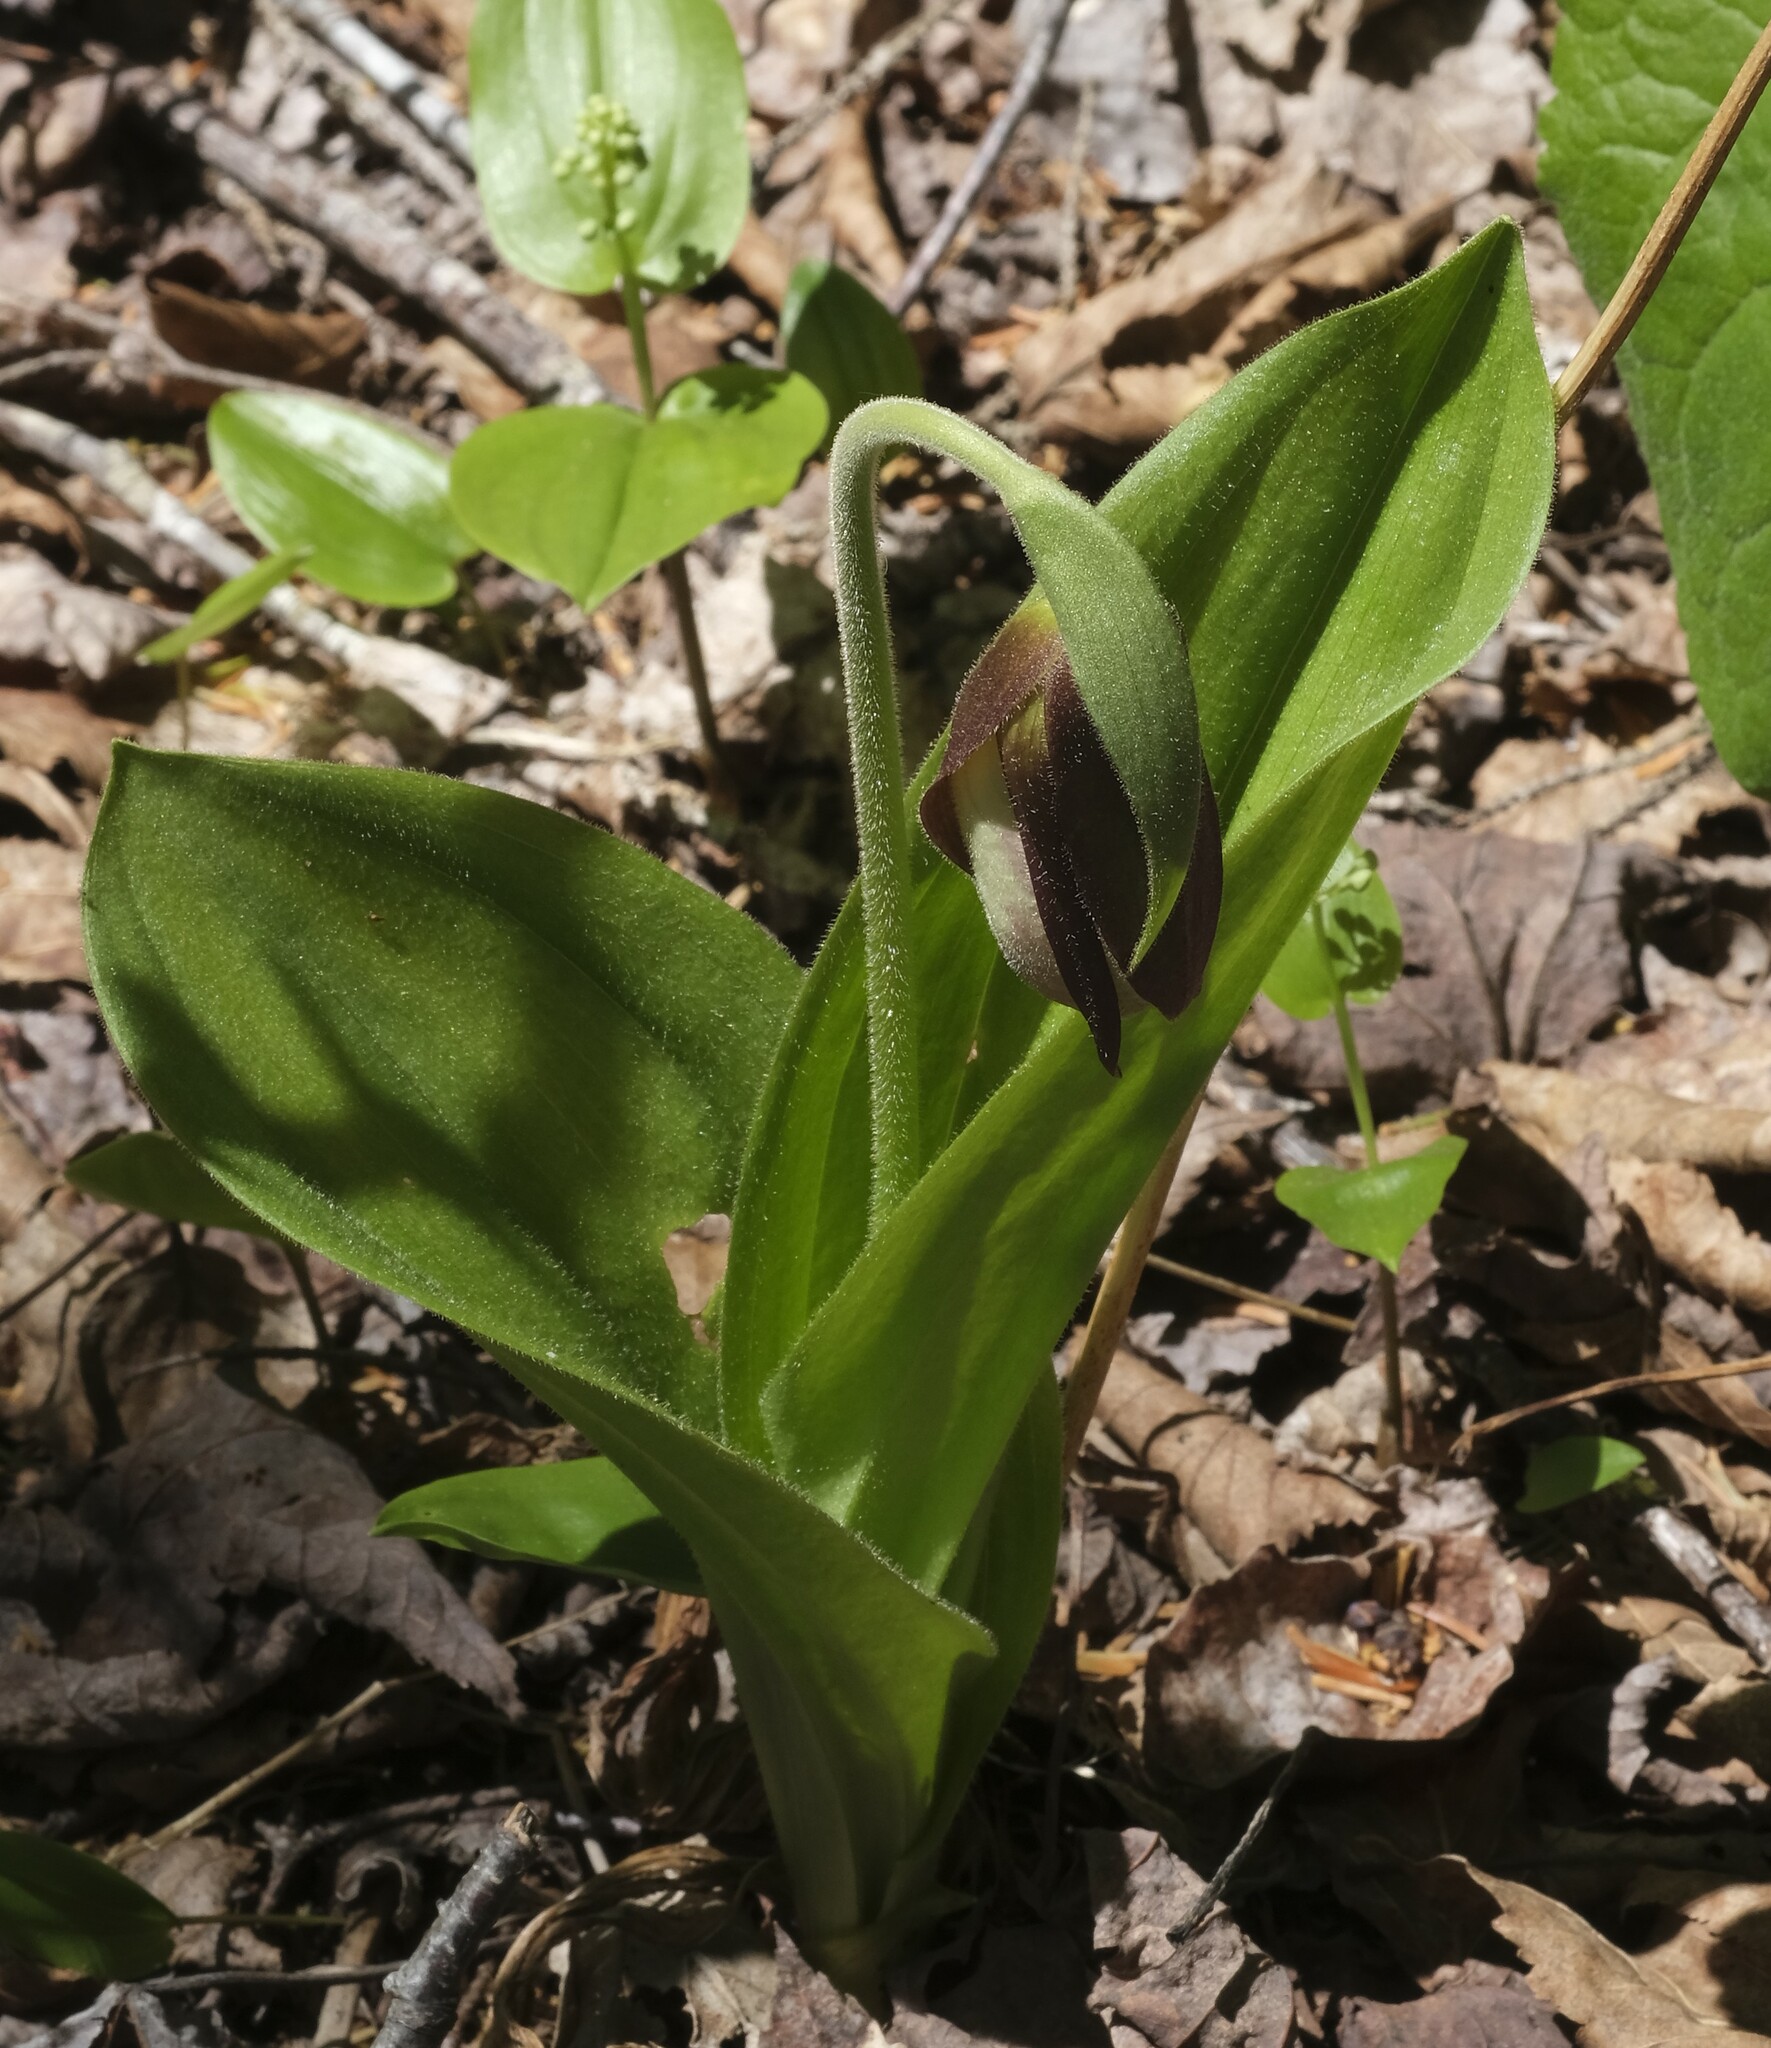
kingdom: Plantae
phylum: Tracheophyta
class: Liliopsida
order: Asparagales
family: Orchidaceae
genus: Cypripedium
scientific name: Cypripedium acaule
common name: Pink lady's-slipper
